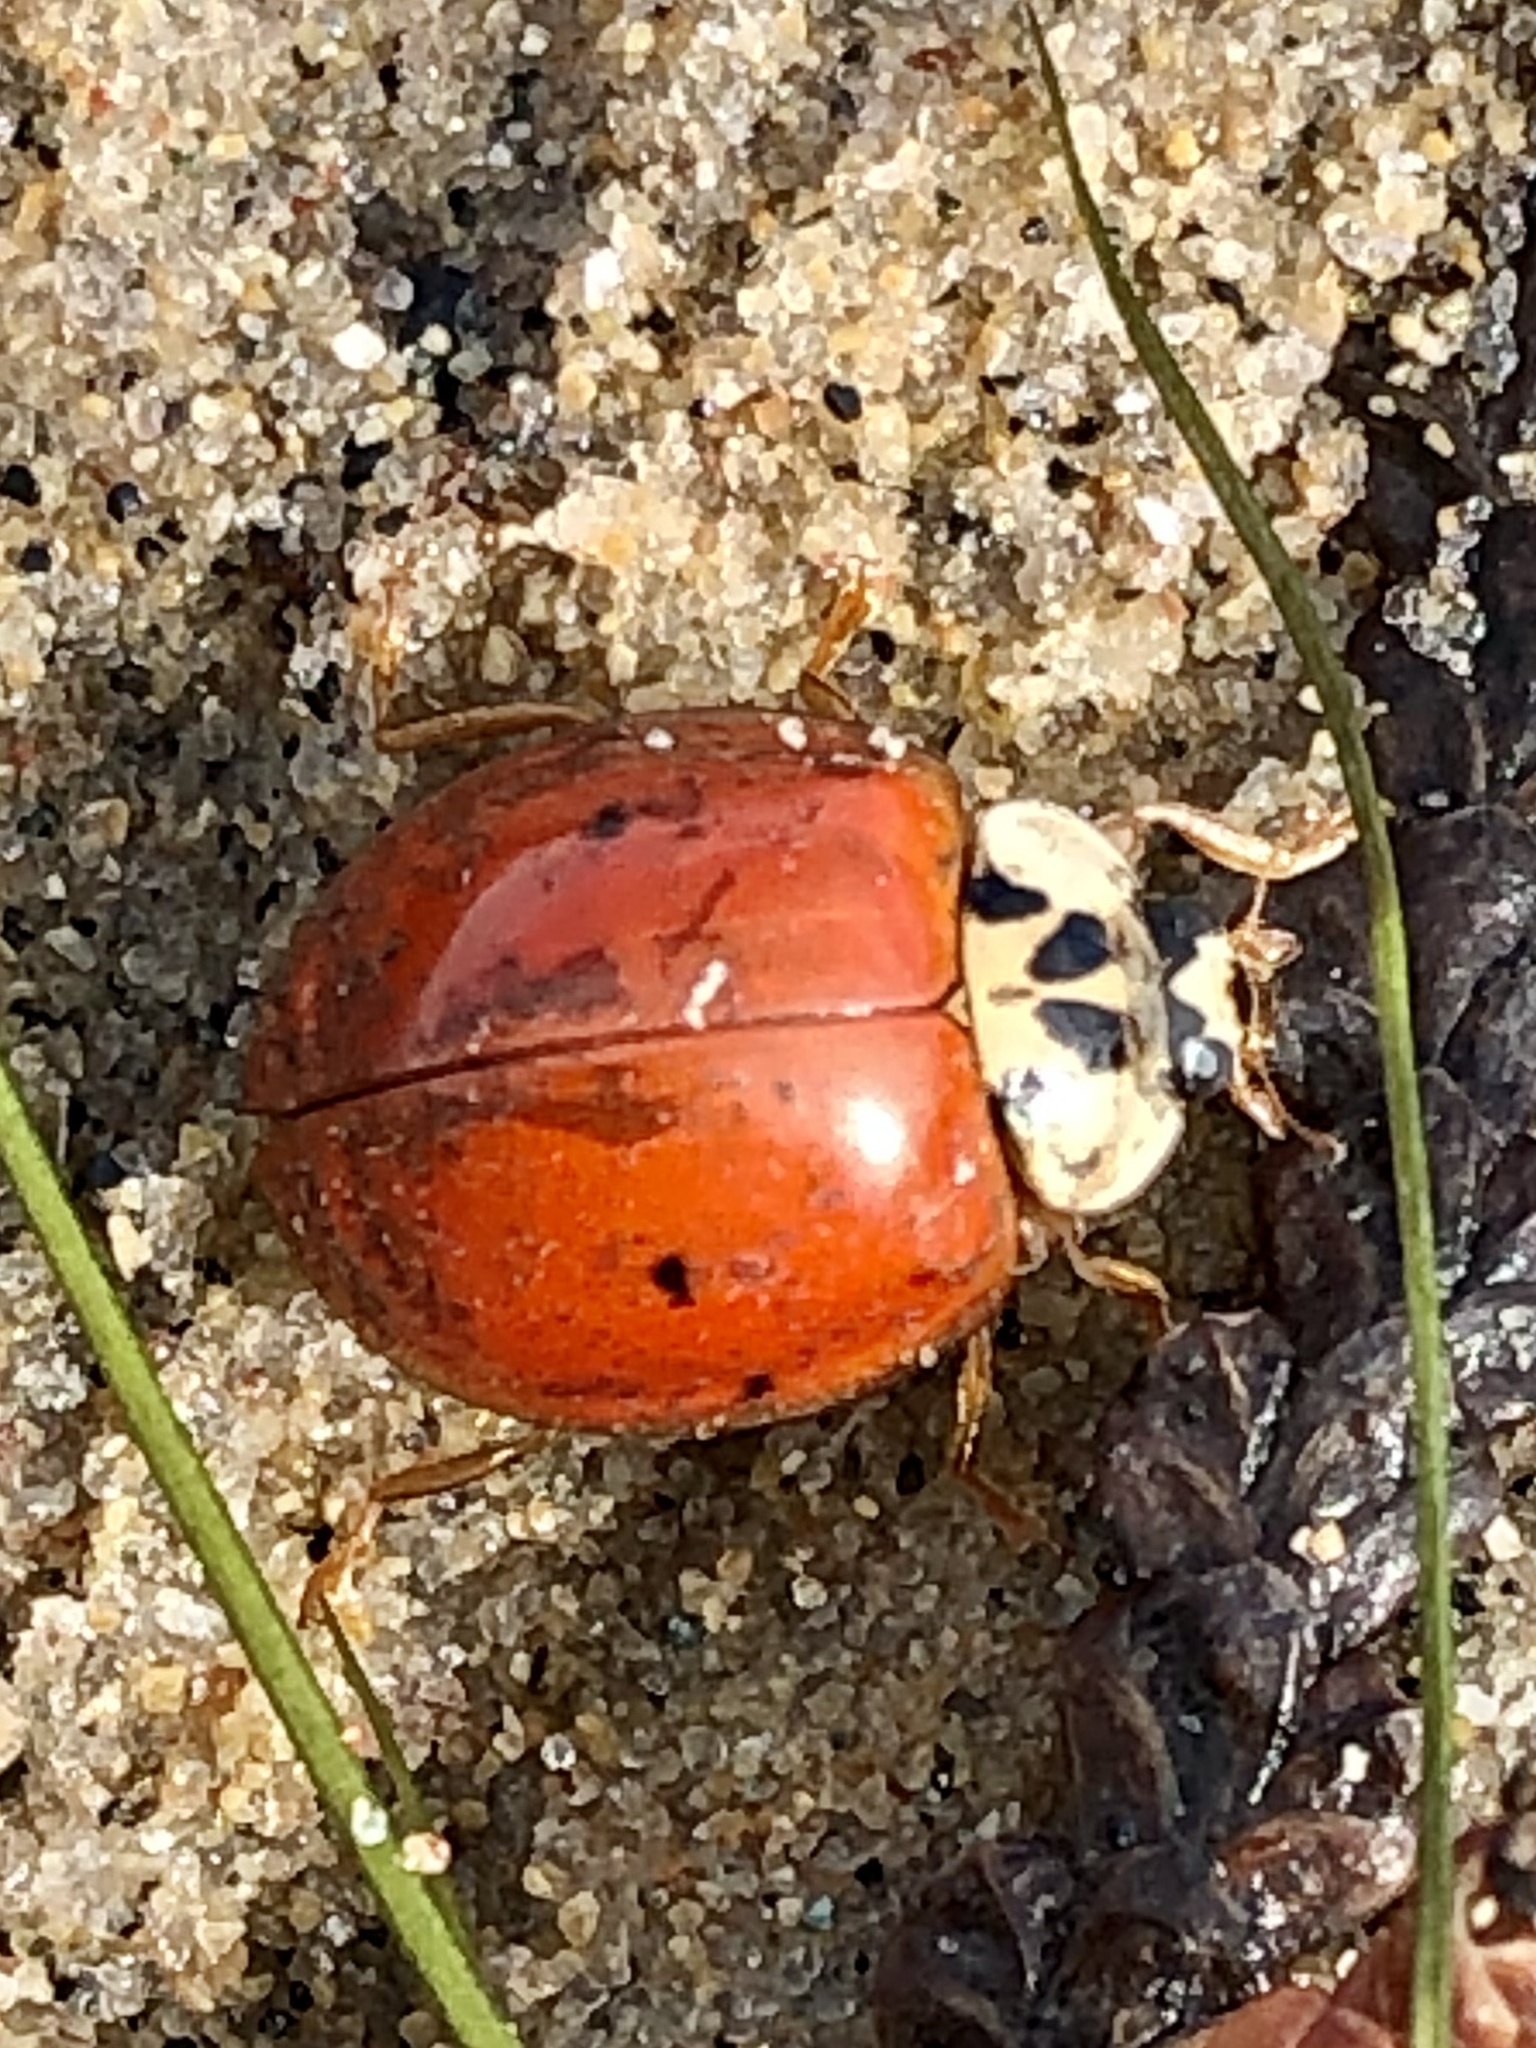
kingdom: Animalia
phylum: Arthropoda
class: Insecta
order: Coleoptera
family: Coccinellidae
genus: Harmonia
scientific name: Harmonia axyridis
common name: Harlequin ladybird
